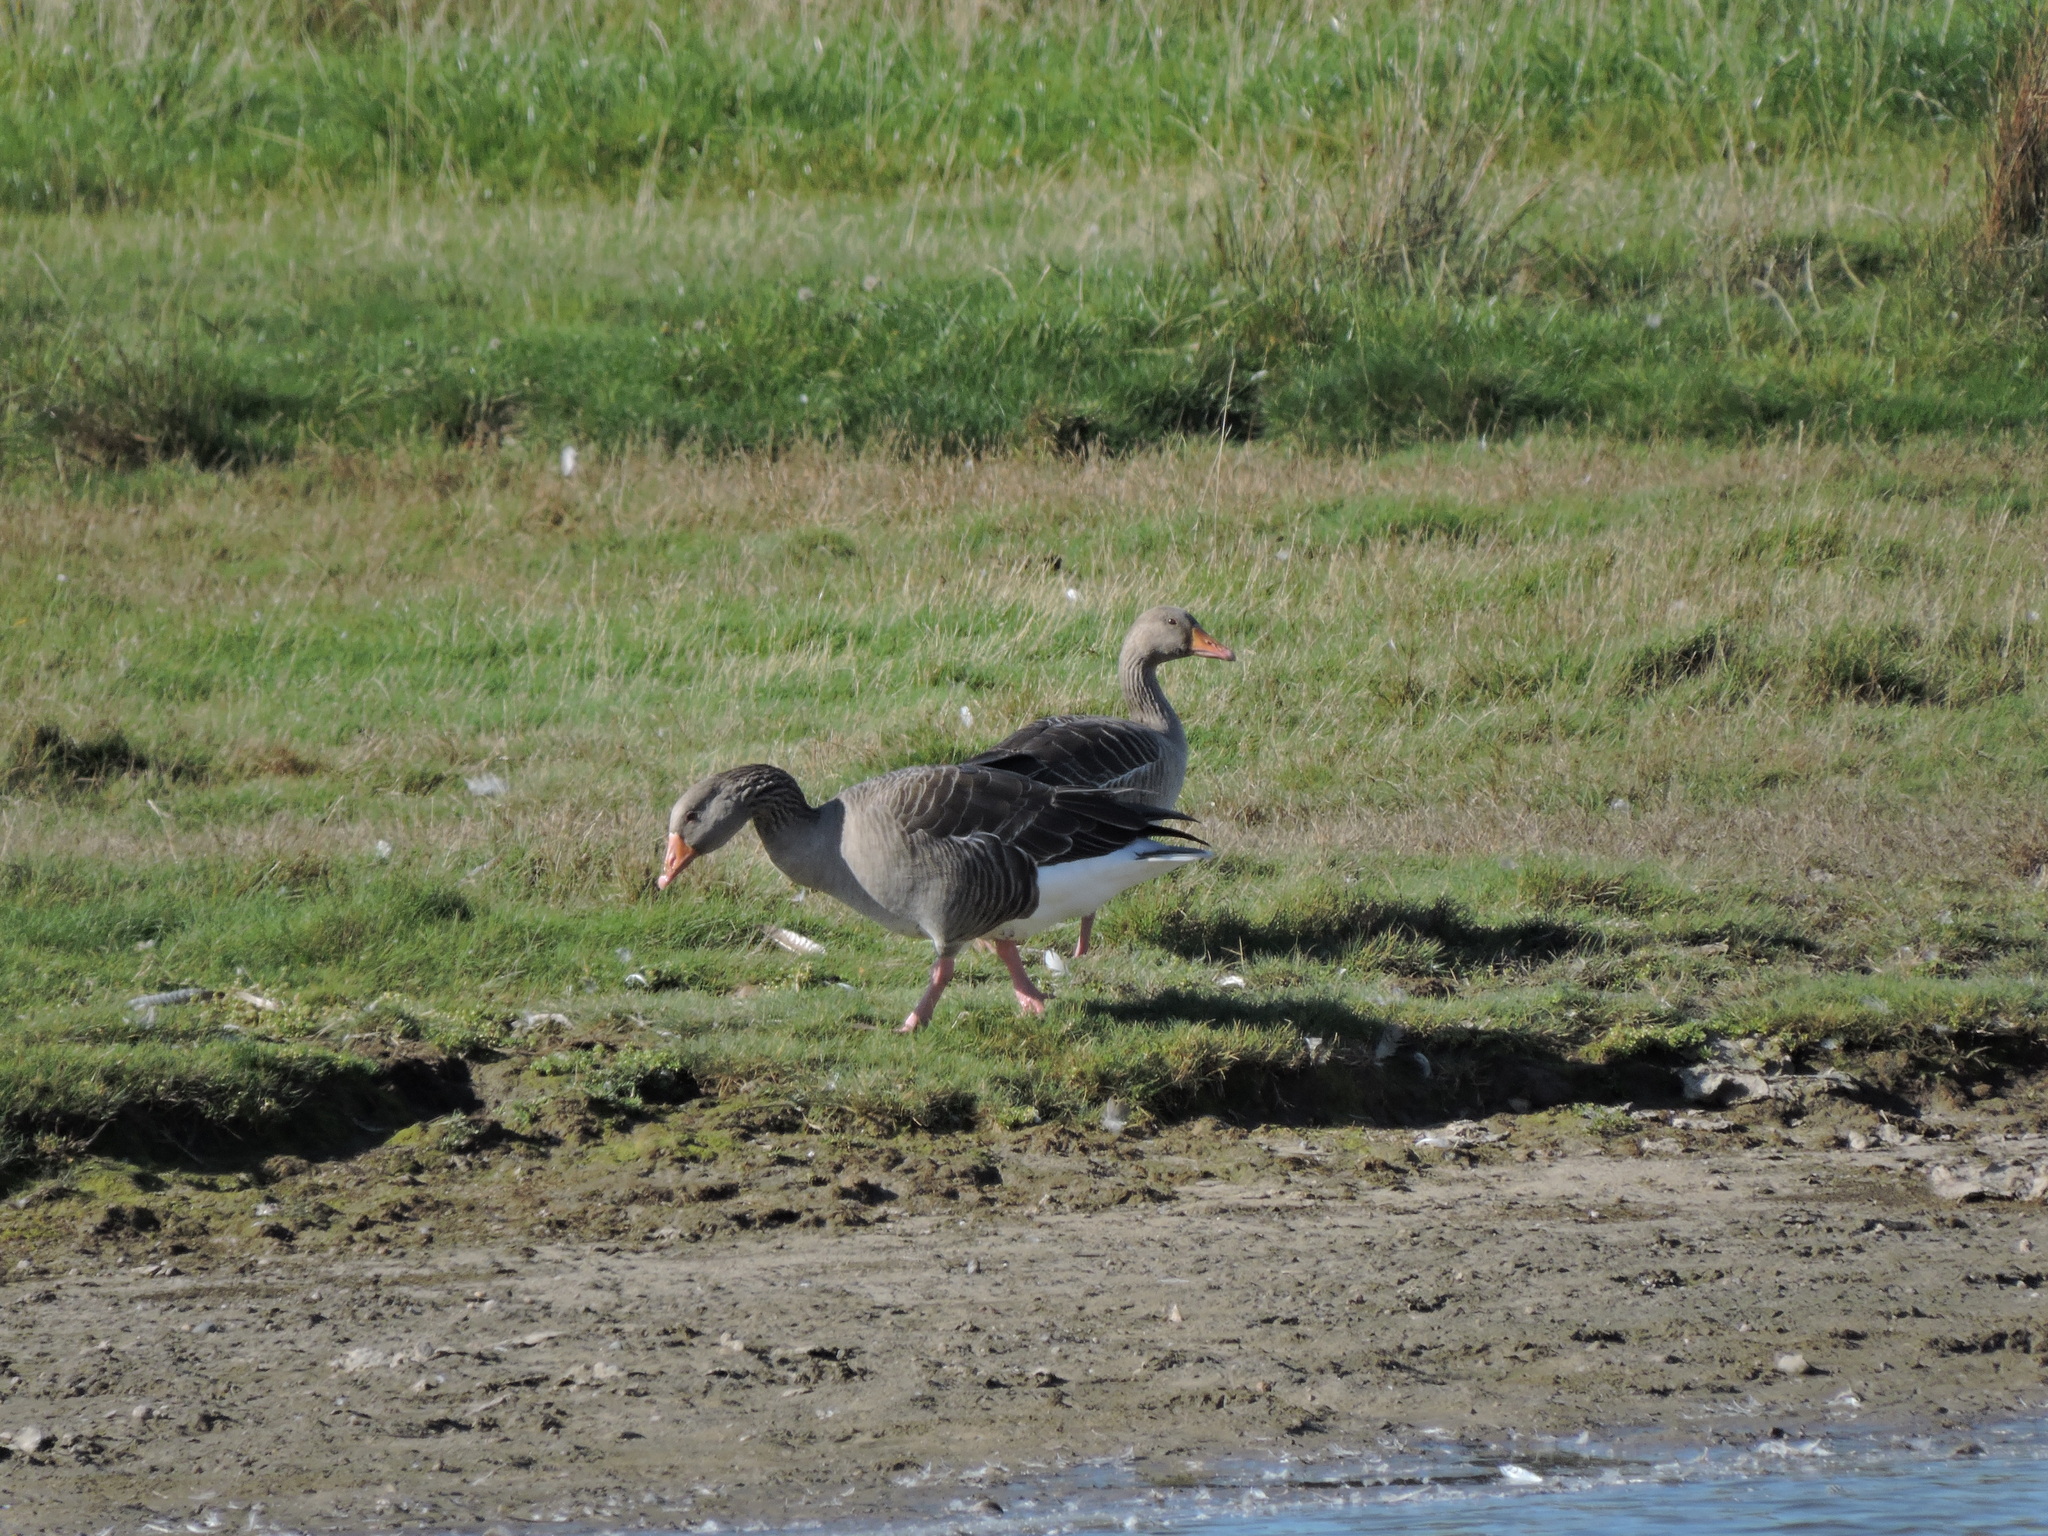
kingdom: Animalia
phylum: Chordata
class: Aves
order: Anseriformes
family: Anatidae
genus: Anser
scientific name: Anser anser
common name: Greylag goose
